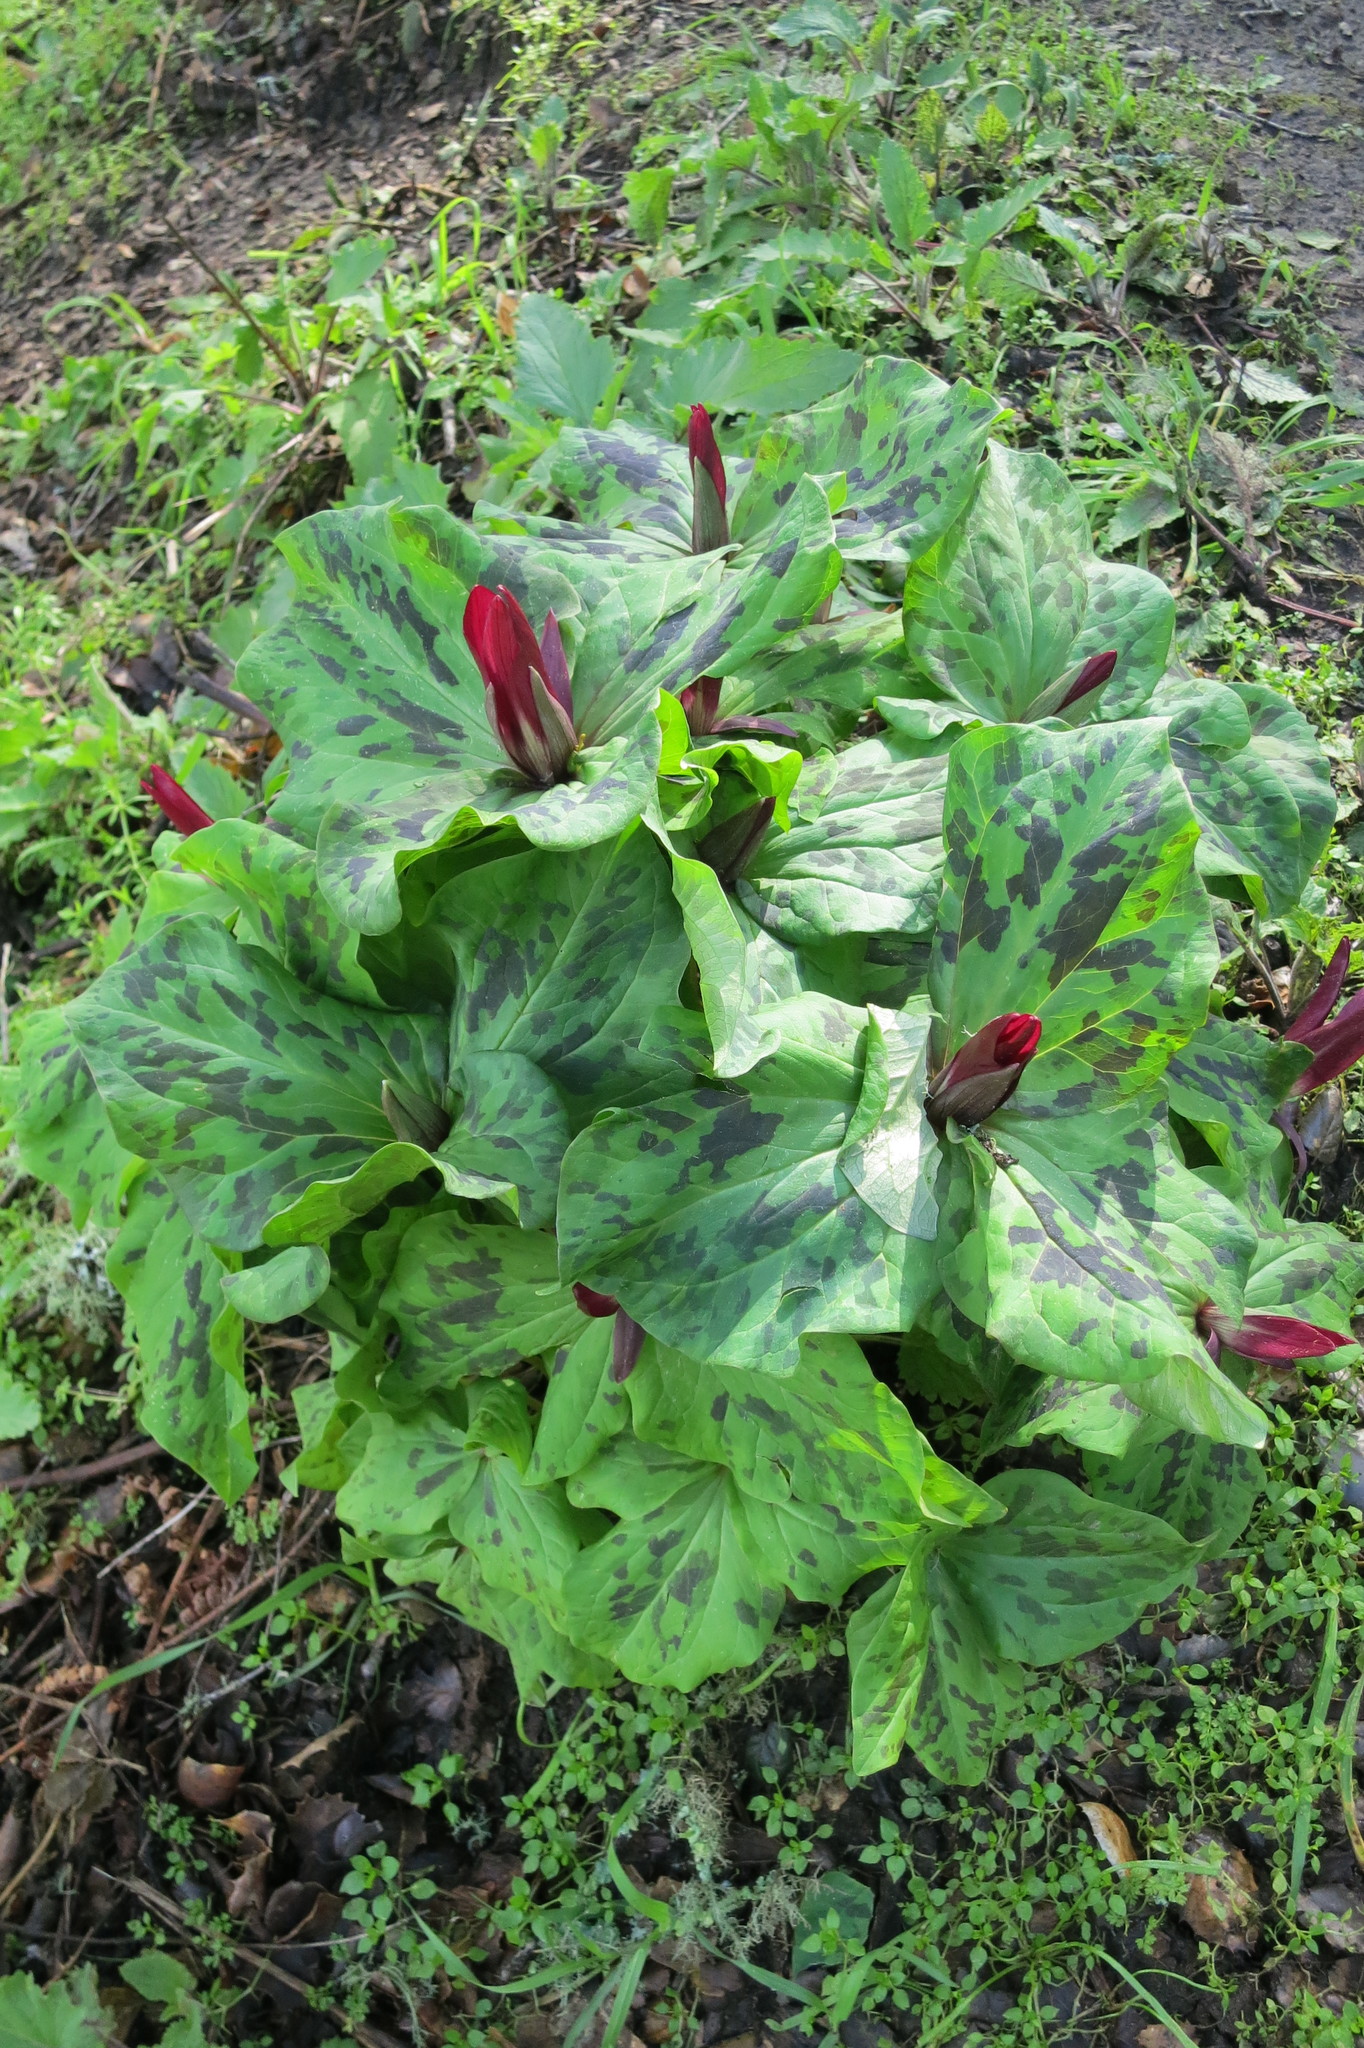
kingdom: Plantae
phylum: Tracheophyta
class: Liliopsida
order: Liliales
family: Melanthiaceae
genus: Trillium
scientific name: Trillium chloropetalum
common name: Giant trillium
